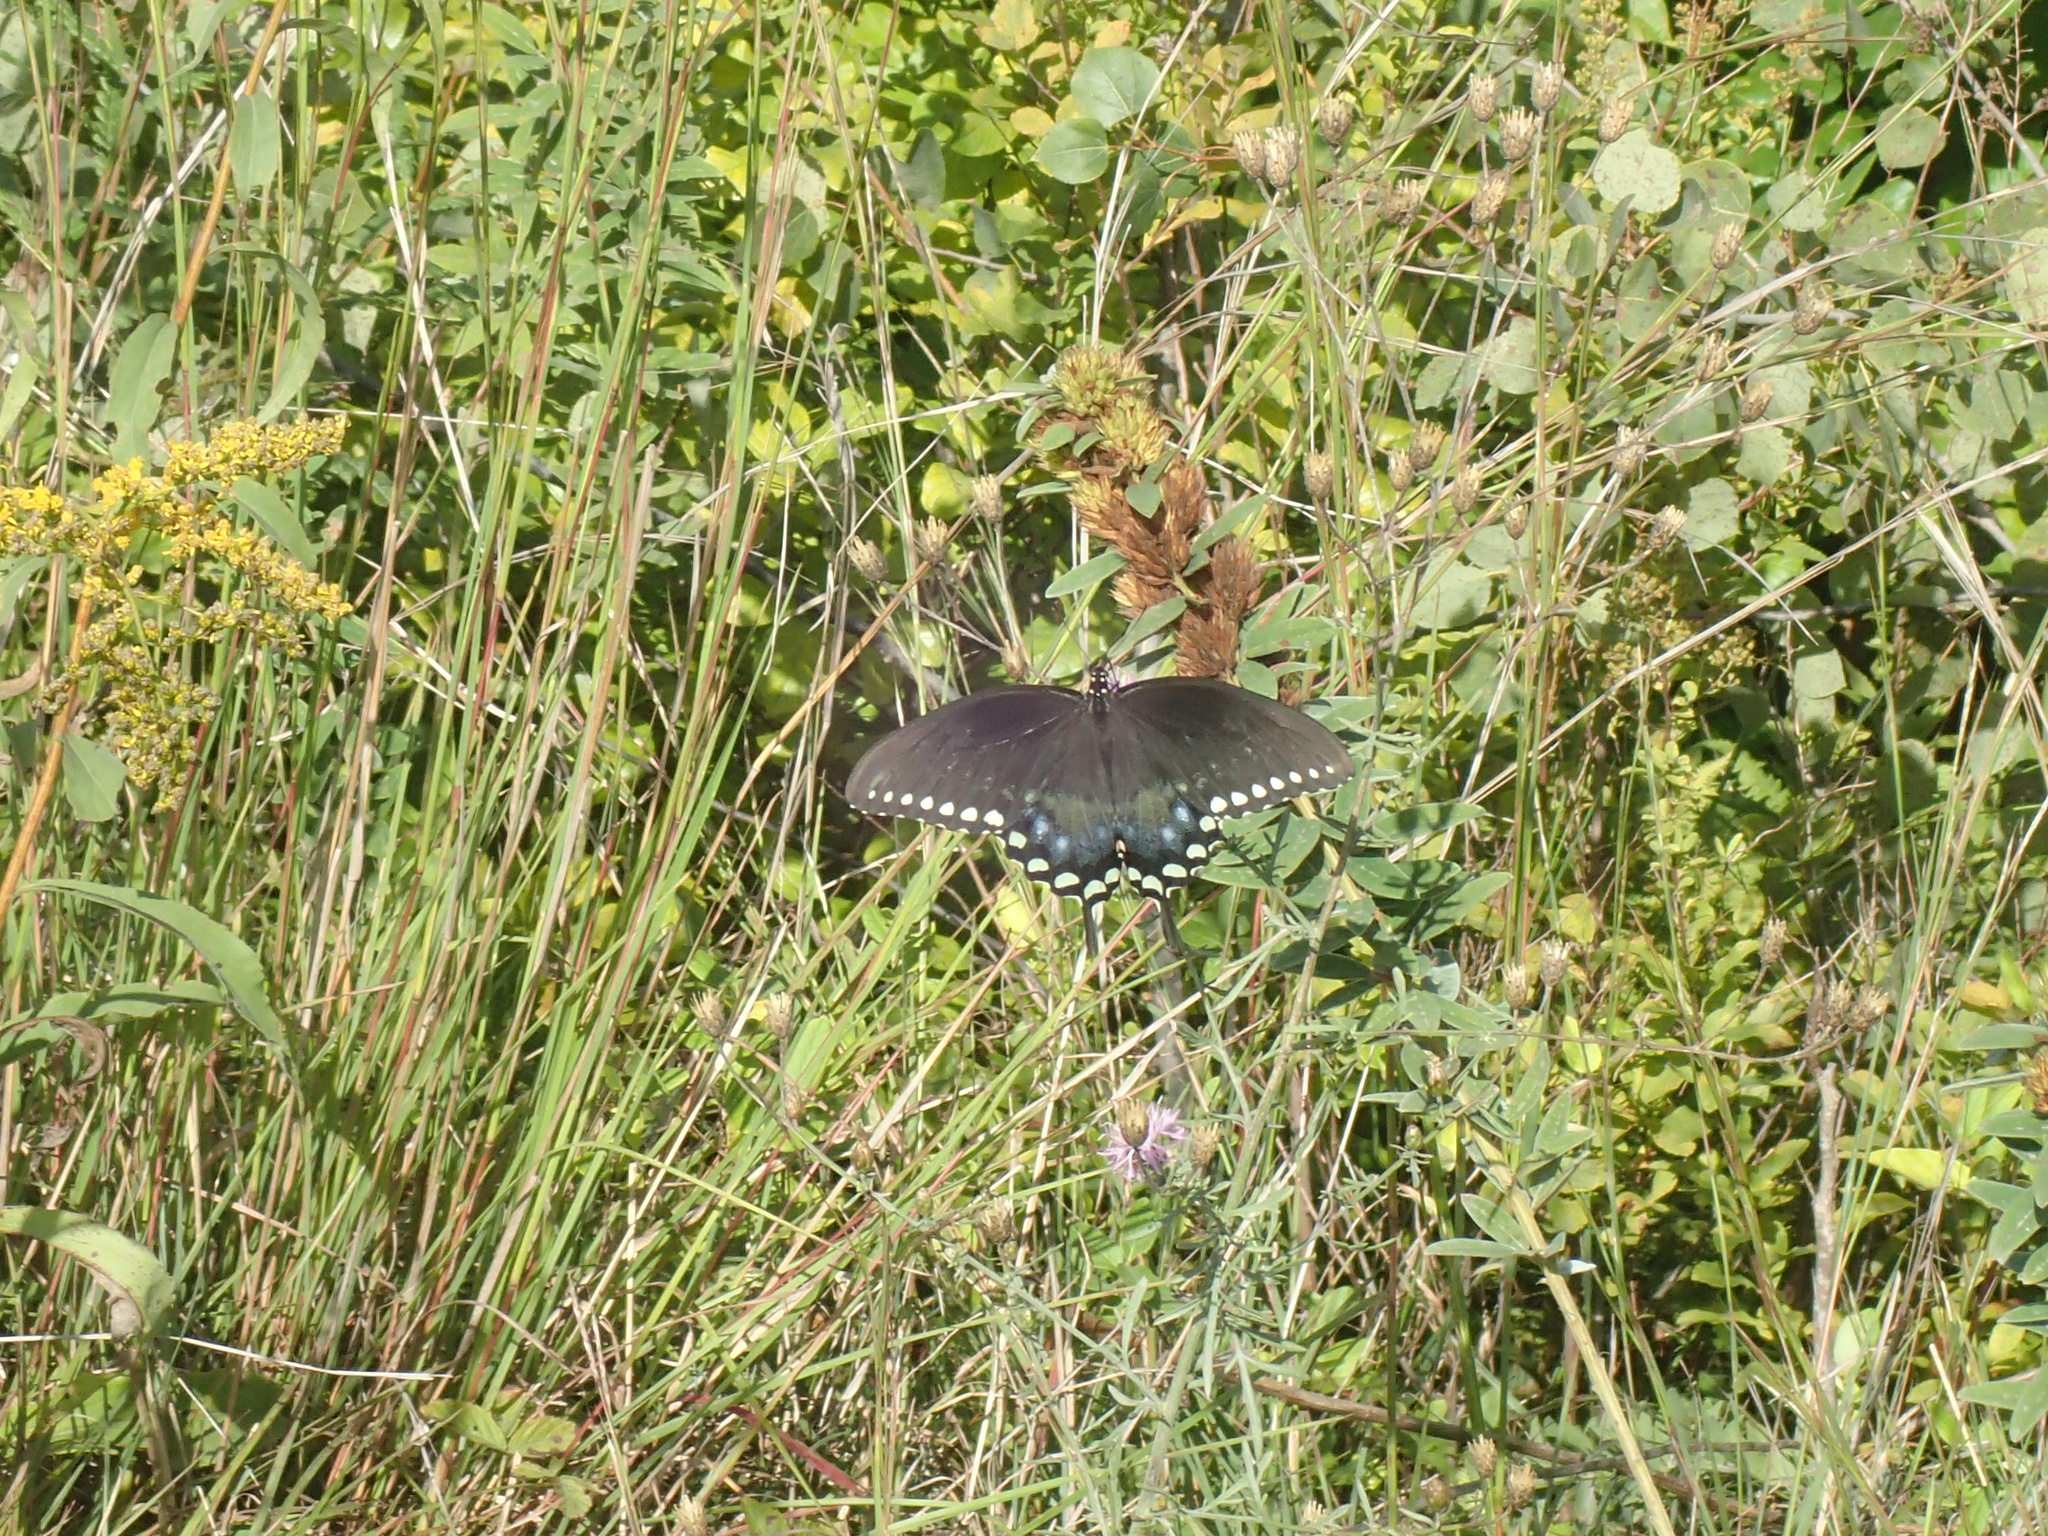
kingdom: Animalia
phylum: Arthropoda
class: Insecta
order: Lepidoptera
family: Papilionidae
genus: Papilio
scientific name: Papilio troilus
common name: Spicebush swallowtail
